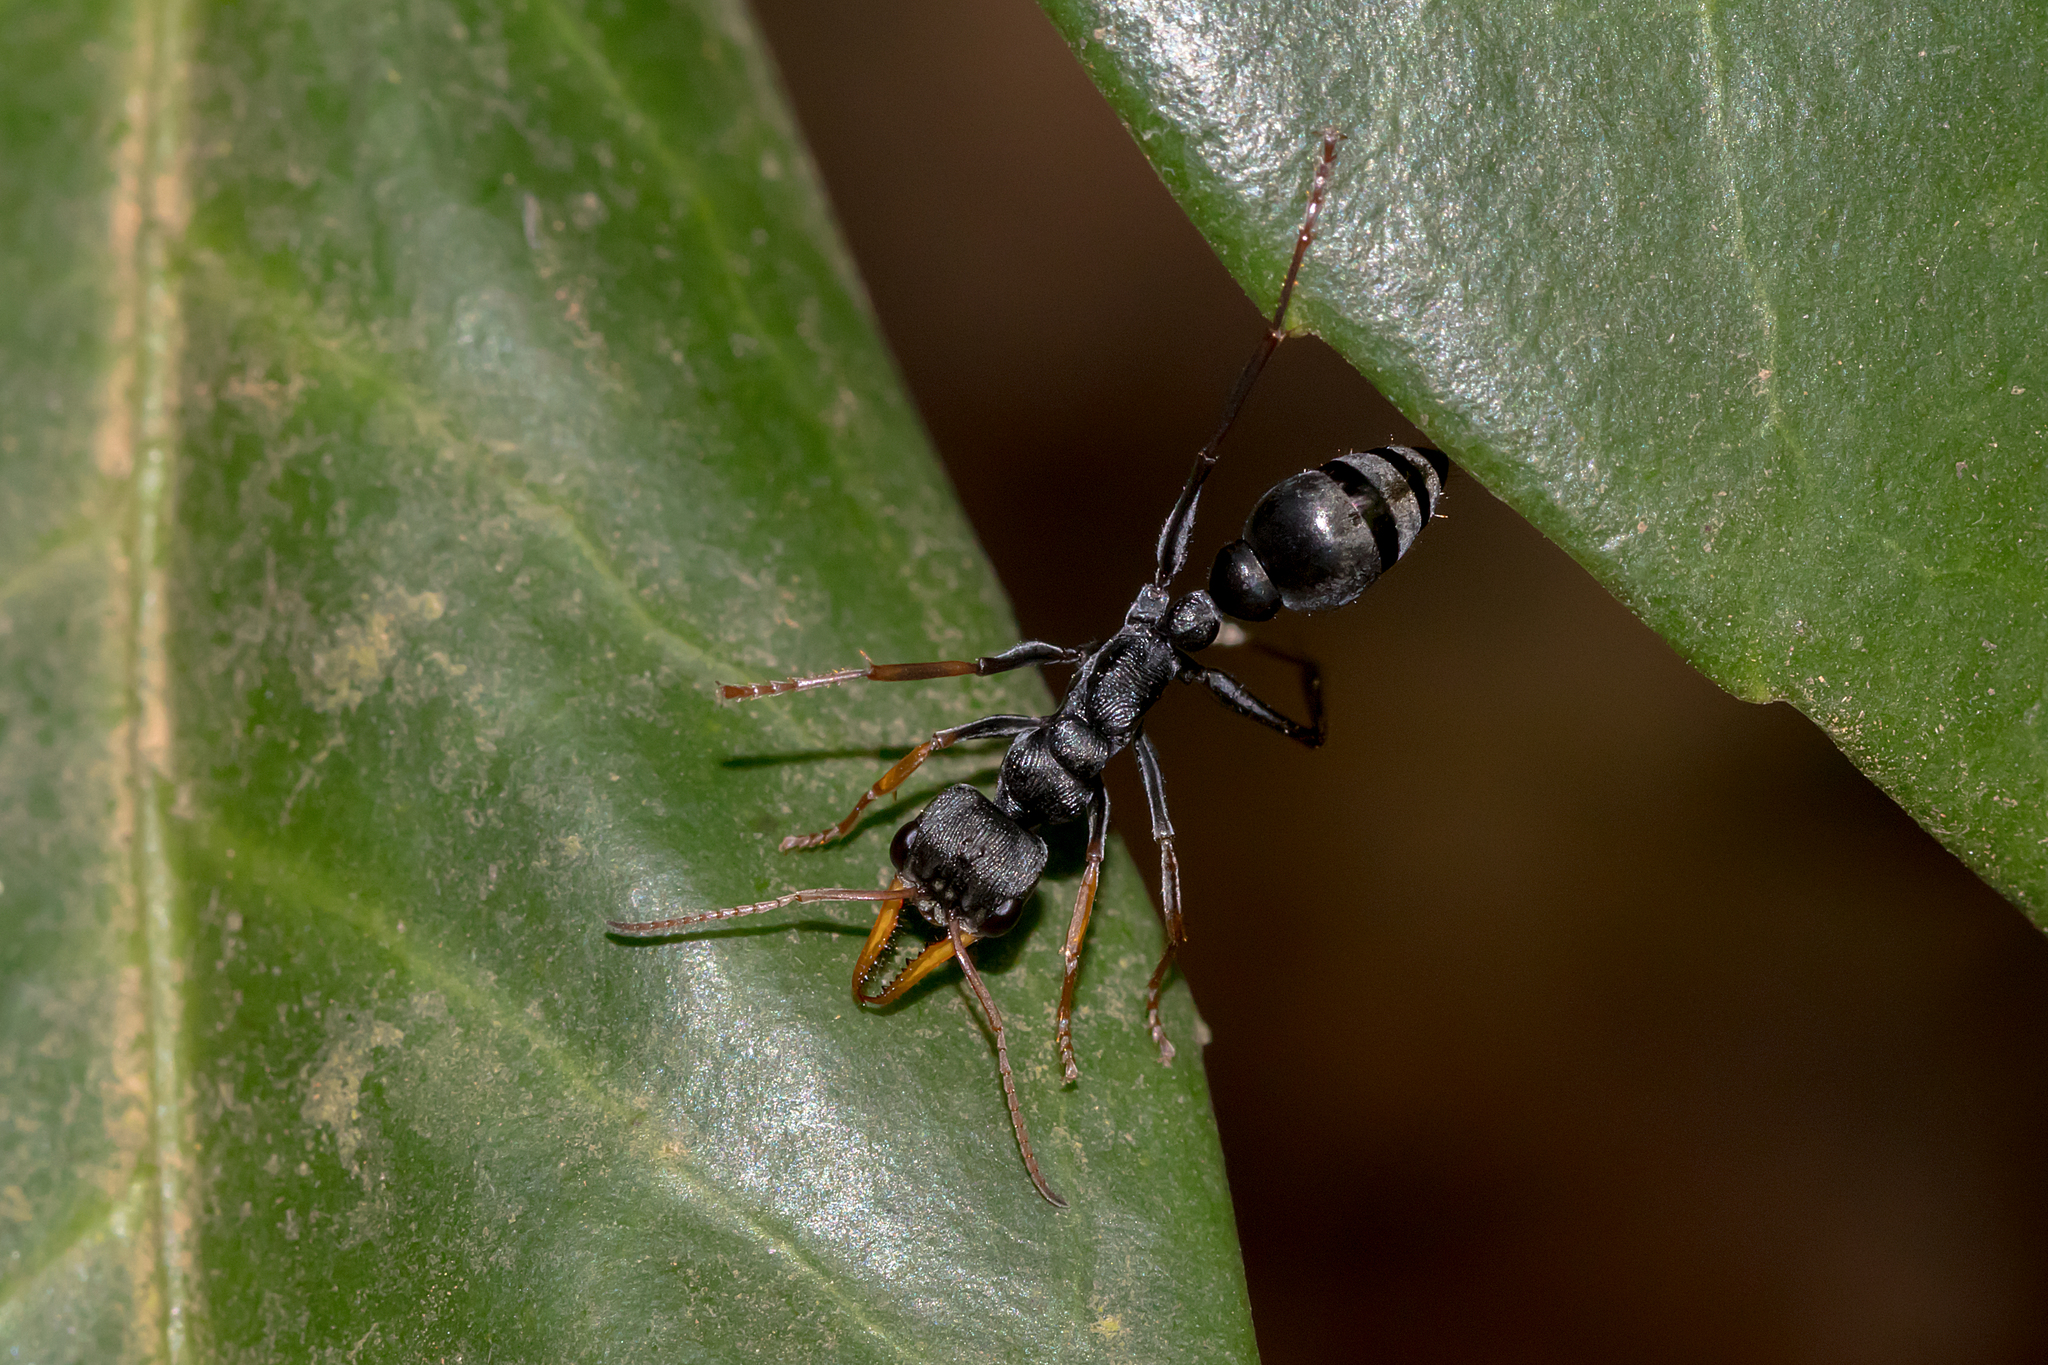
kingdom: Animalia
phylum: Arthropoda
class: Insecta
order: Hymenoptera
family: Formicidae
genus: Myrmecia
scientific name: Myrmecia pilosula
